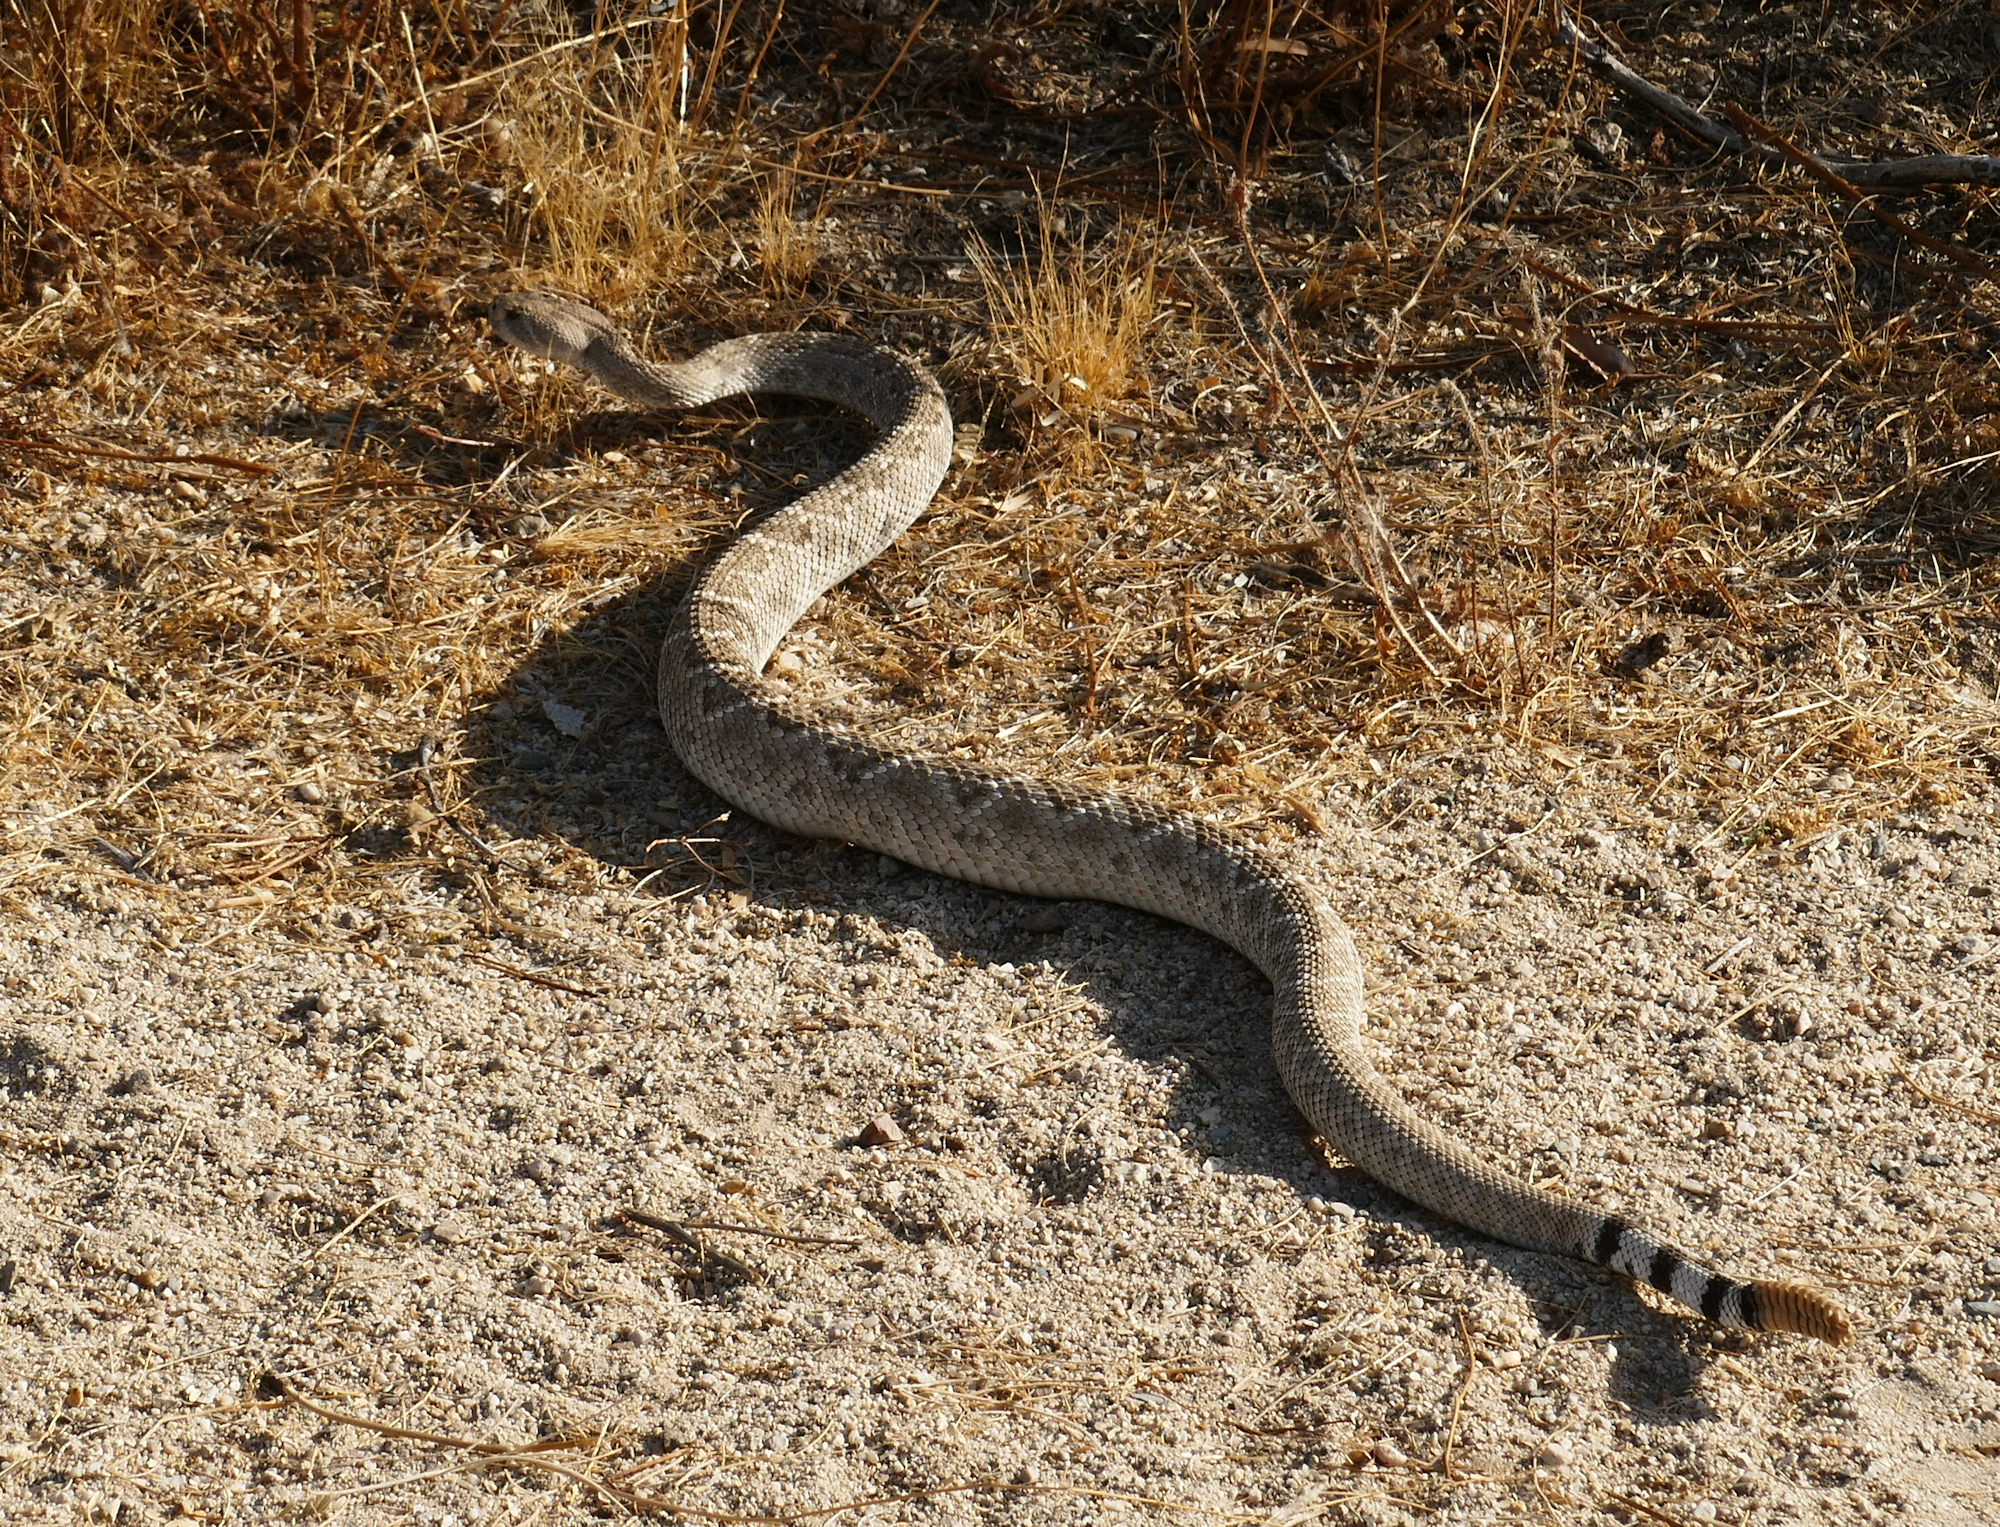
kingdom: Animalia
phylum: Chordata
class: Squamata
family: Viperidae
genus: Crotalus
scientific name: Crotalus atrox
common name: Western diamond-backed rattlesnake
